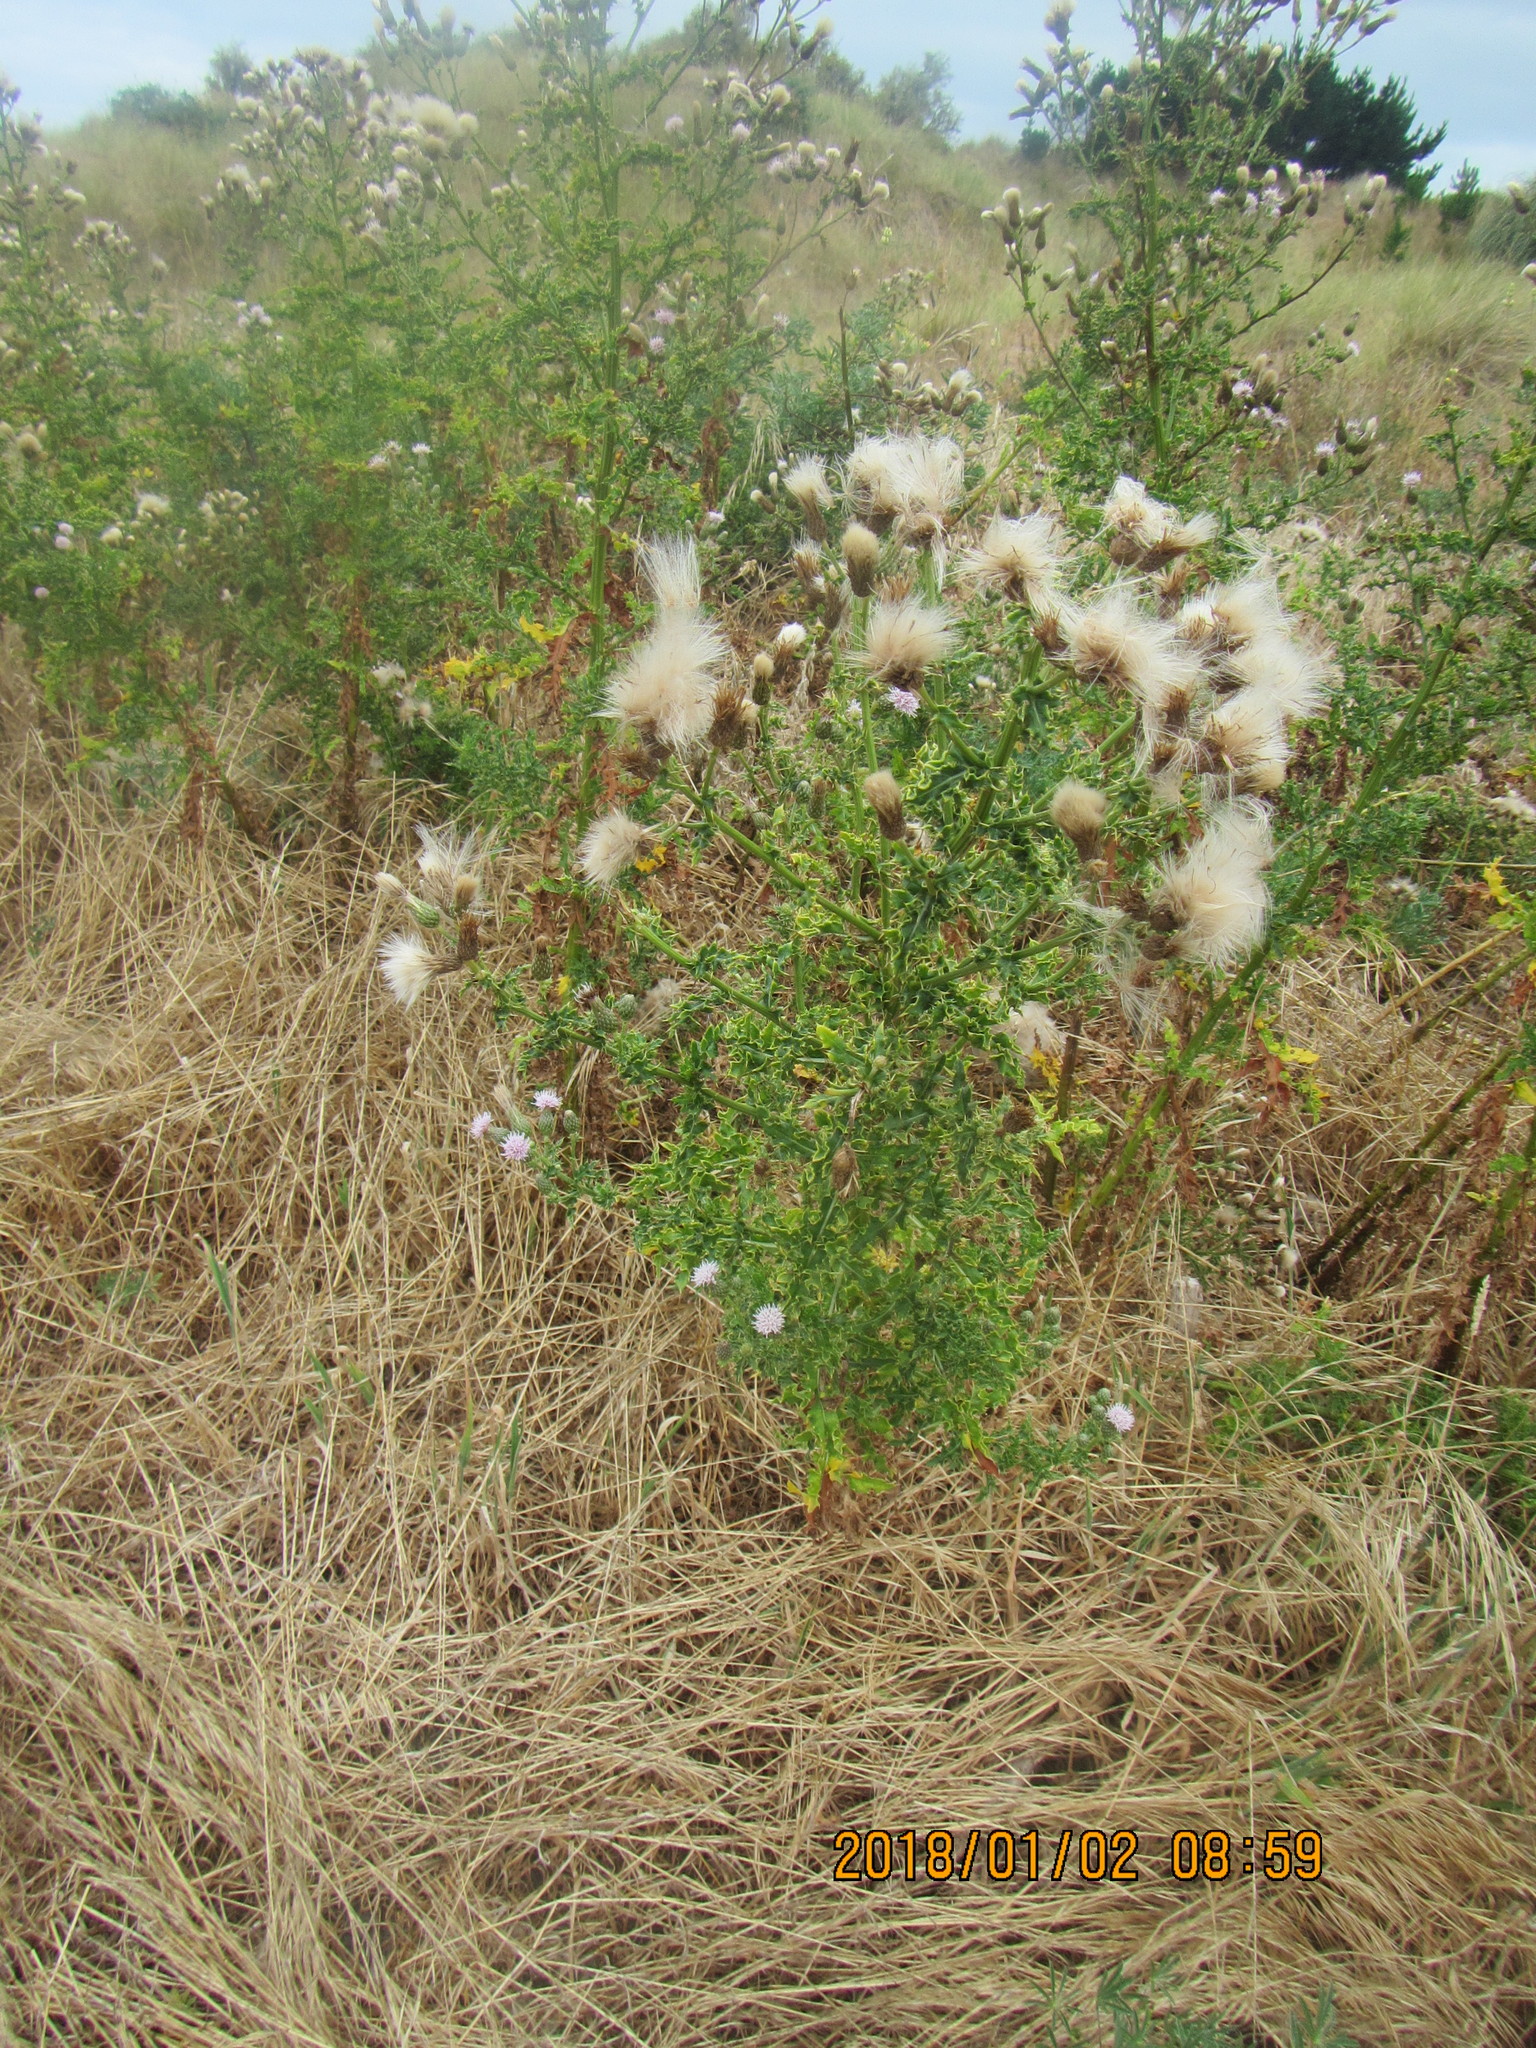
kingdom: Plantae
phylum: Tracheophyta
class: Magnoliopsida
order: Asterales
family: Asteraceae
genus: Cirsium
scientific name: Cirsium arvense
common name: Creeping thistle
